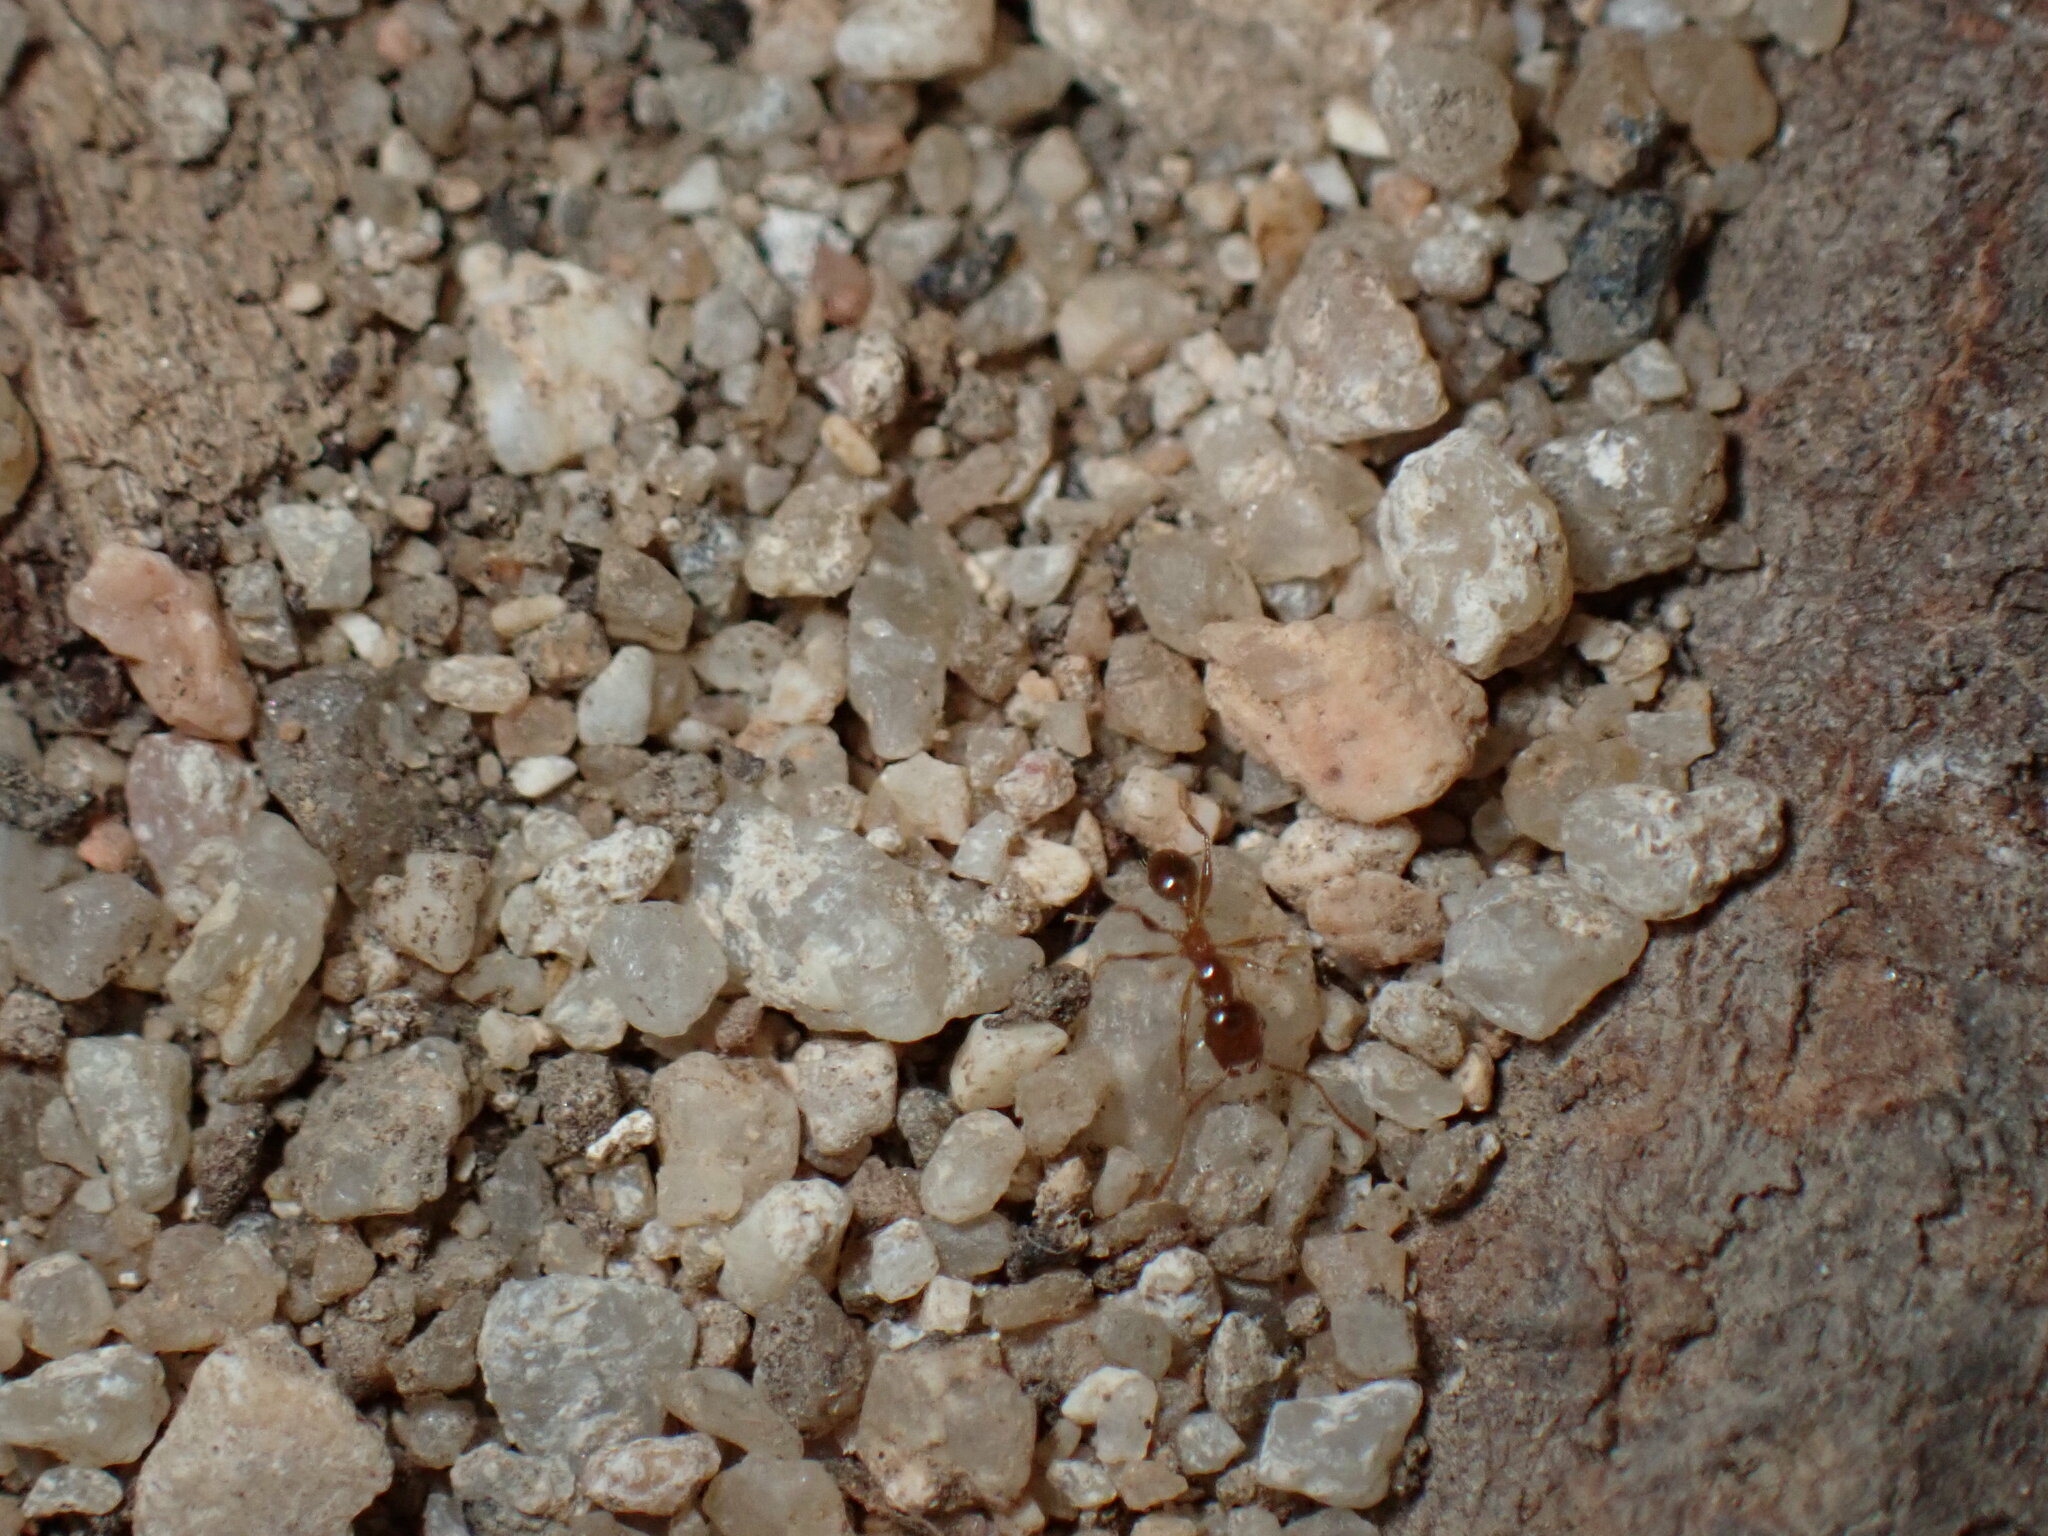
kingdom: Animalia
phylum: Arthropoda
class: Insecta
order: Hymenoptera
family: Formicidae
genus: Pheidole
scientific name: Pheidole pallidula
